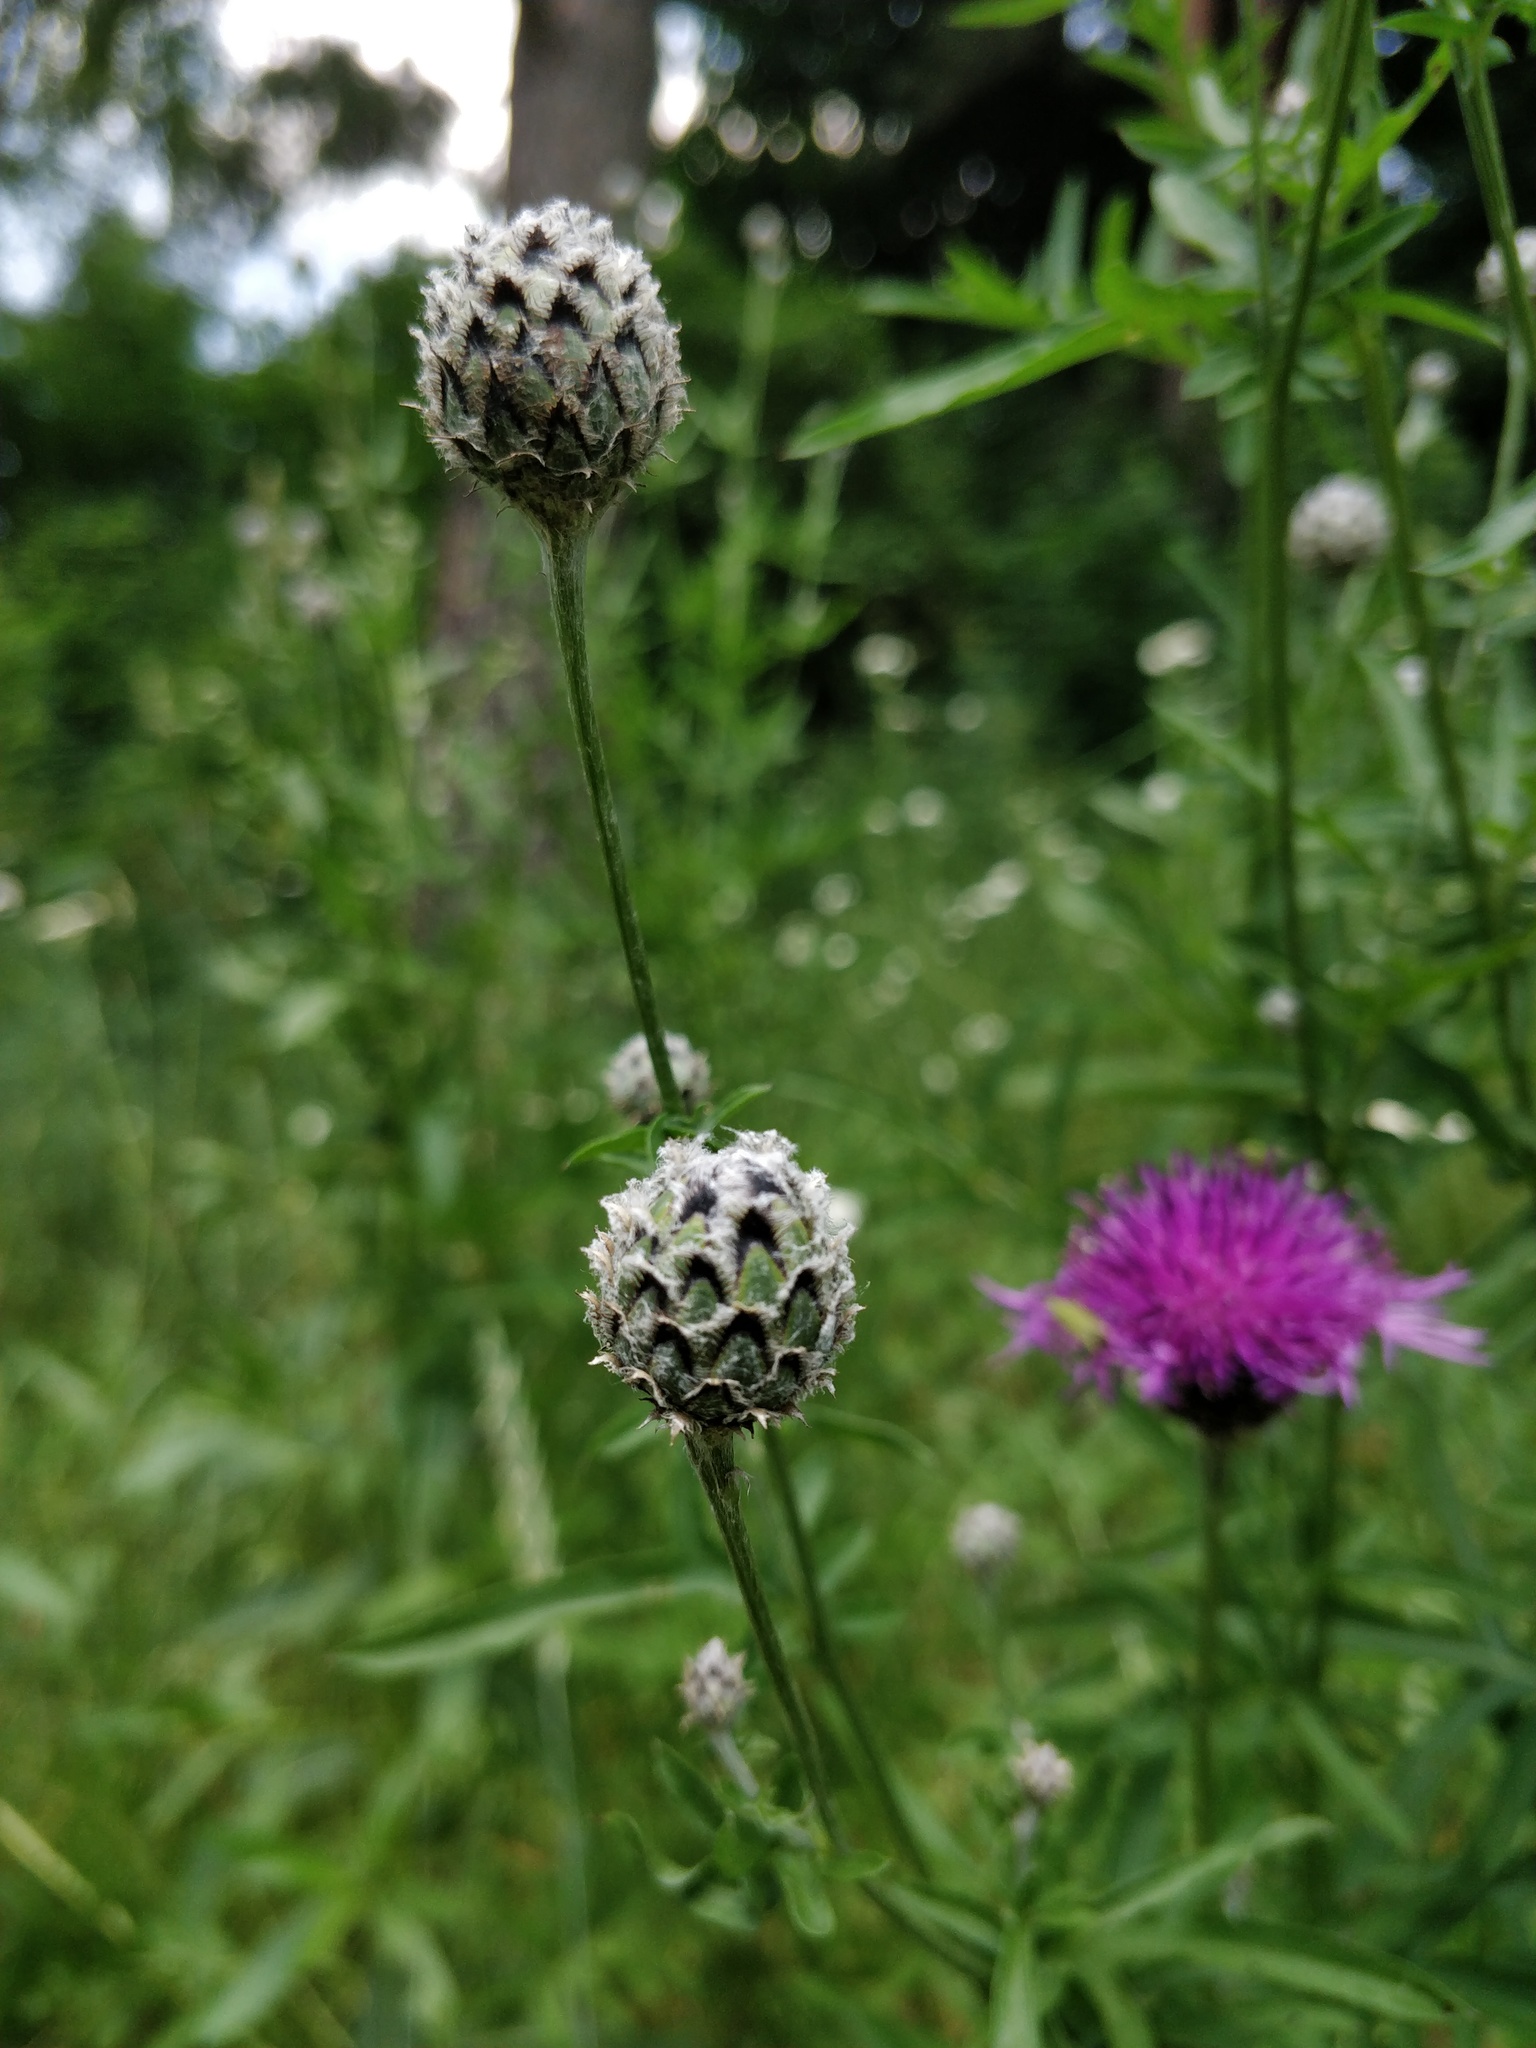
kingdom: Plantae
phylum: Tracheophyta
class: Magnoliopsida
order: Asterales
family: Asteraceae
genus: Centaurea
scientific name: Centaurea scabiosa
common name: Greater knapweed
